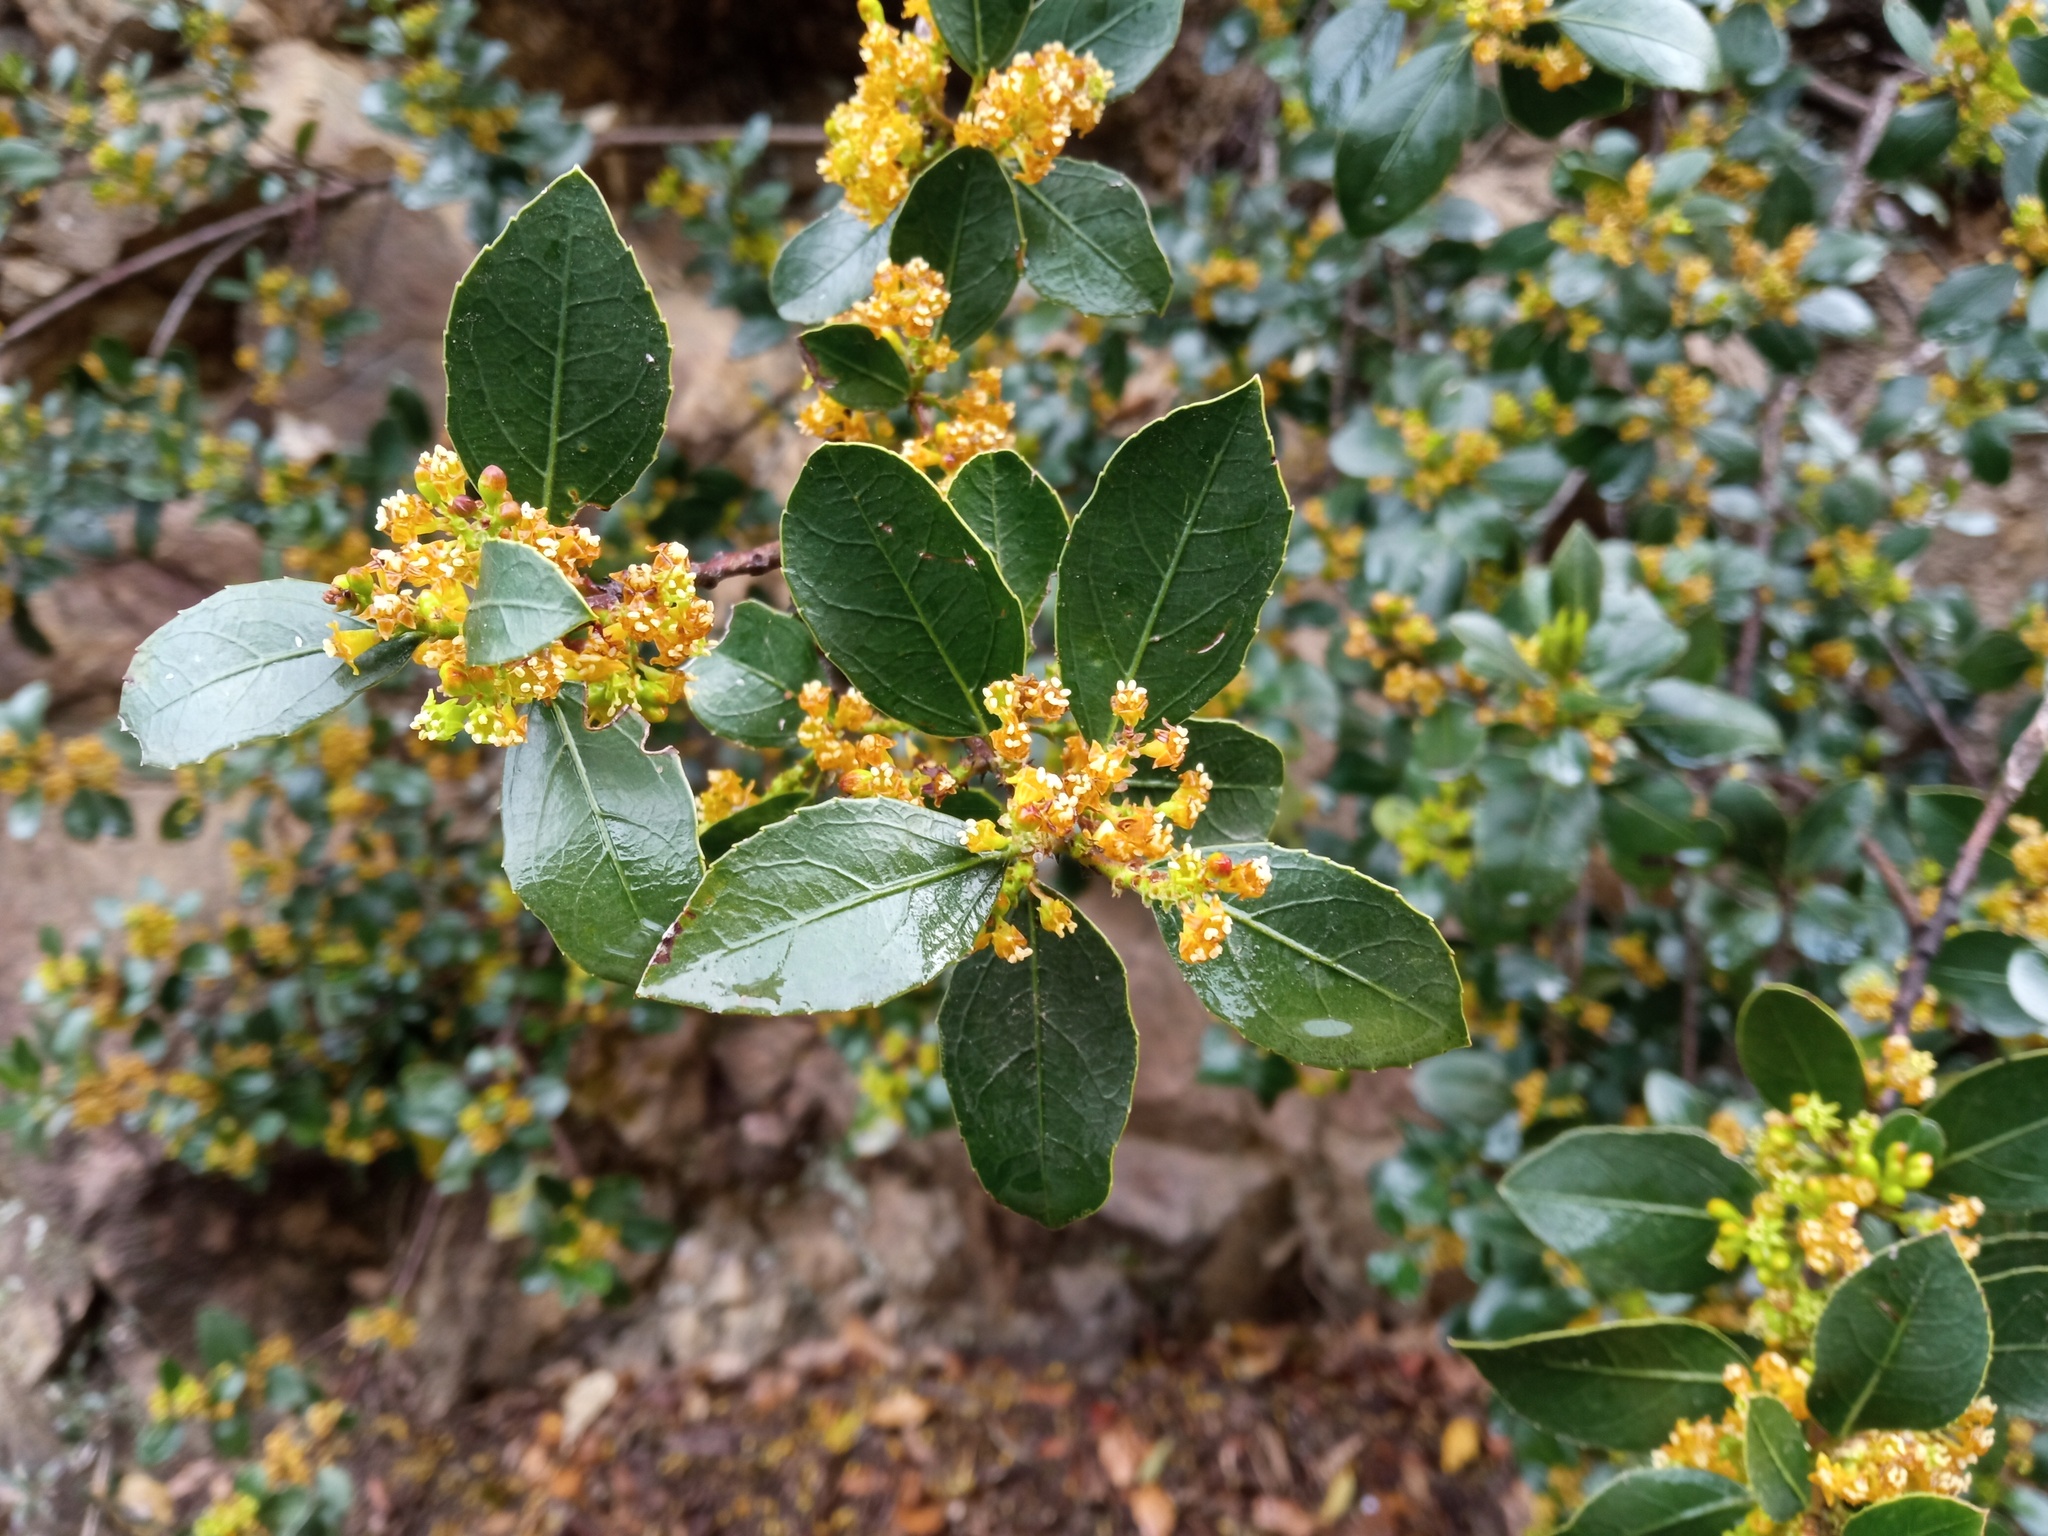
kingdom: Plantae
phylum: Tracheophyta
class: Magnoliopsida
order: Rosales
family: Rhamnaceae
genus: Rhamnus
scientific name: Rhamnus alaternus
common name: Mediterranean buckthorn
